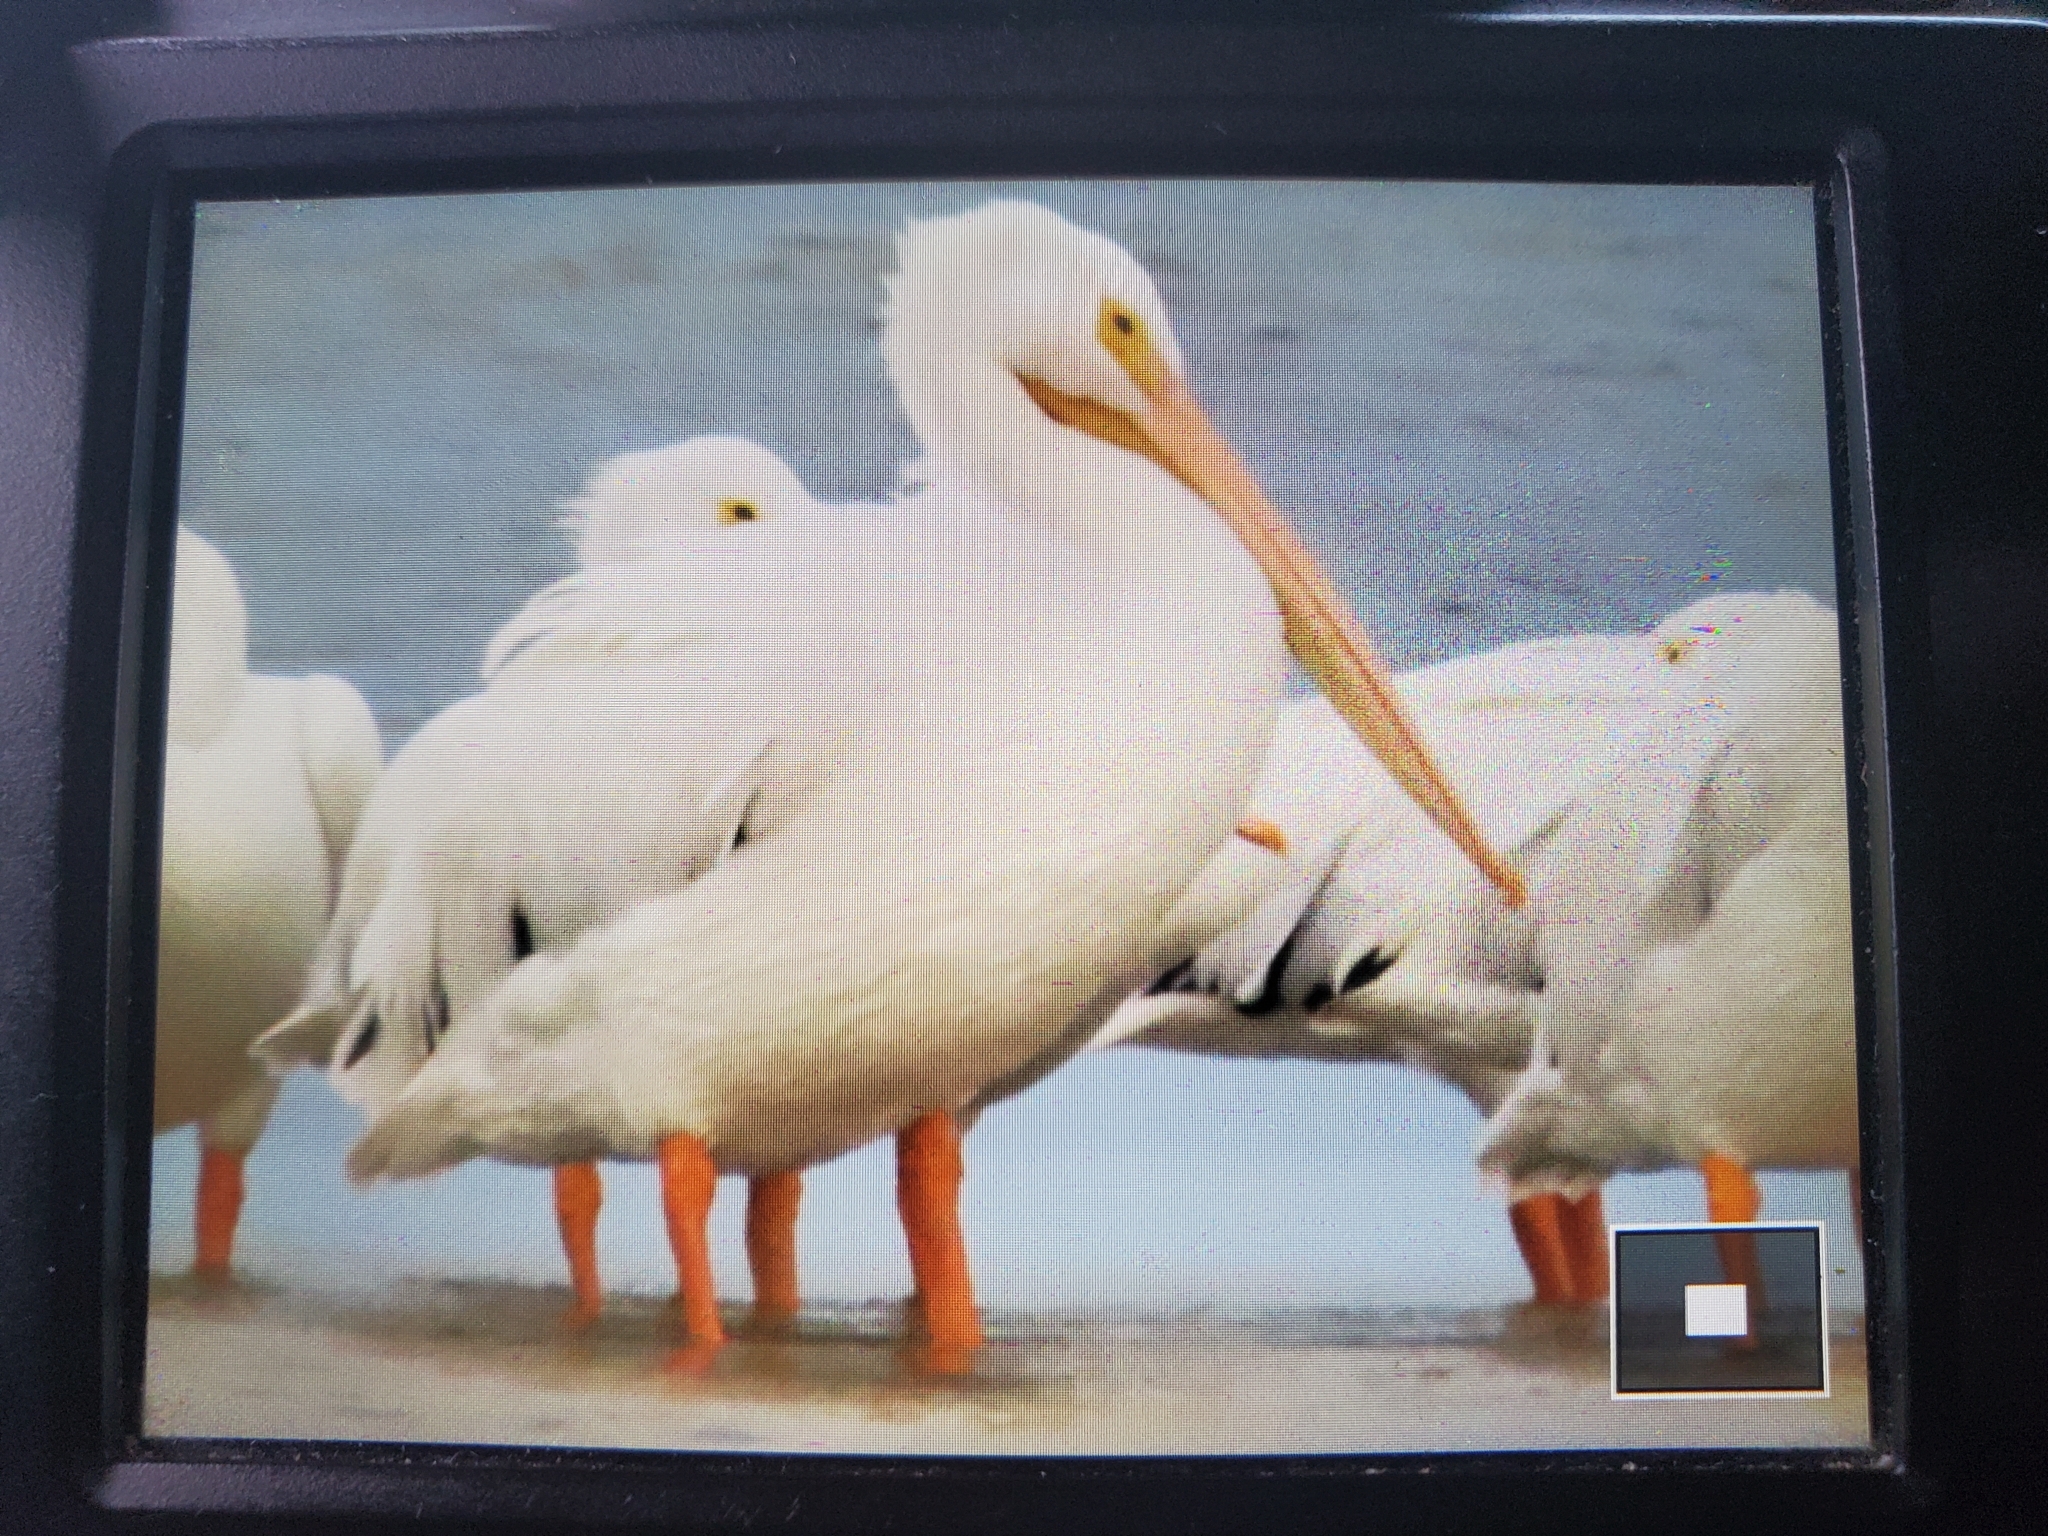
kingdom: Animalia
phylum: Chordata
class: Aves
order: Pelecaniformes
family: Pelecanidae
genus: Pelecanus
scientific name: Pelecanus erythrorhynchos
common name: American white pelican
